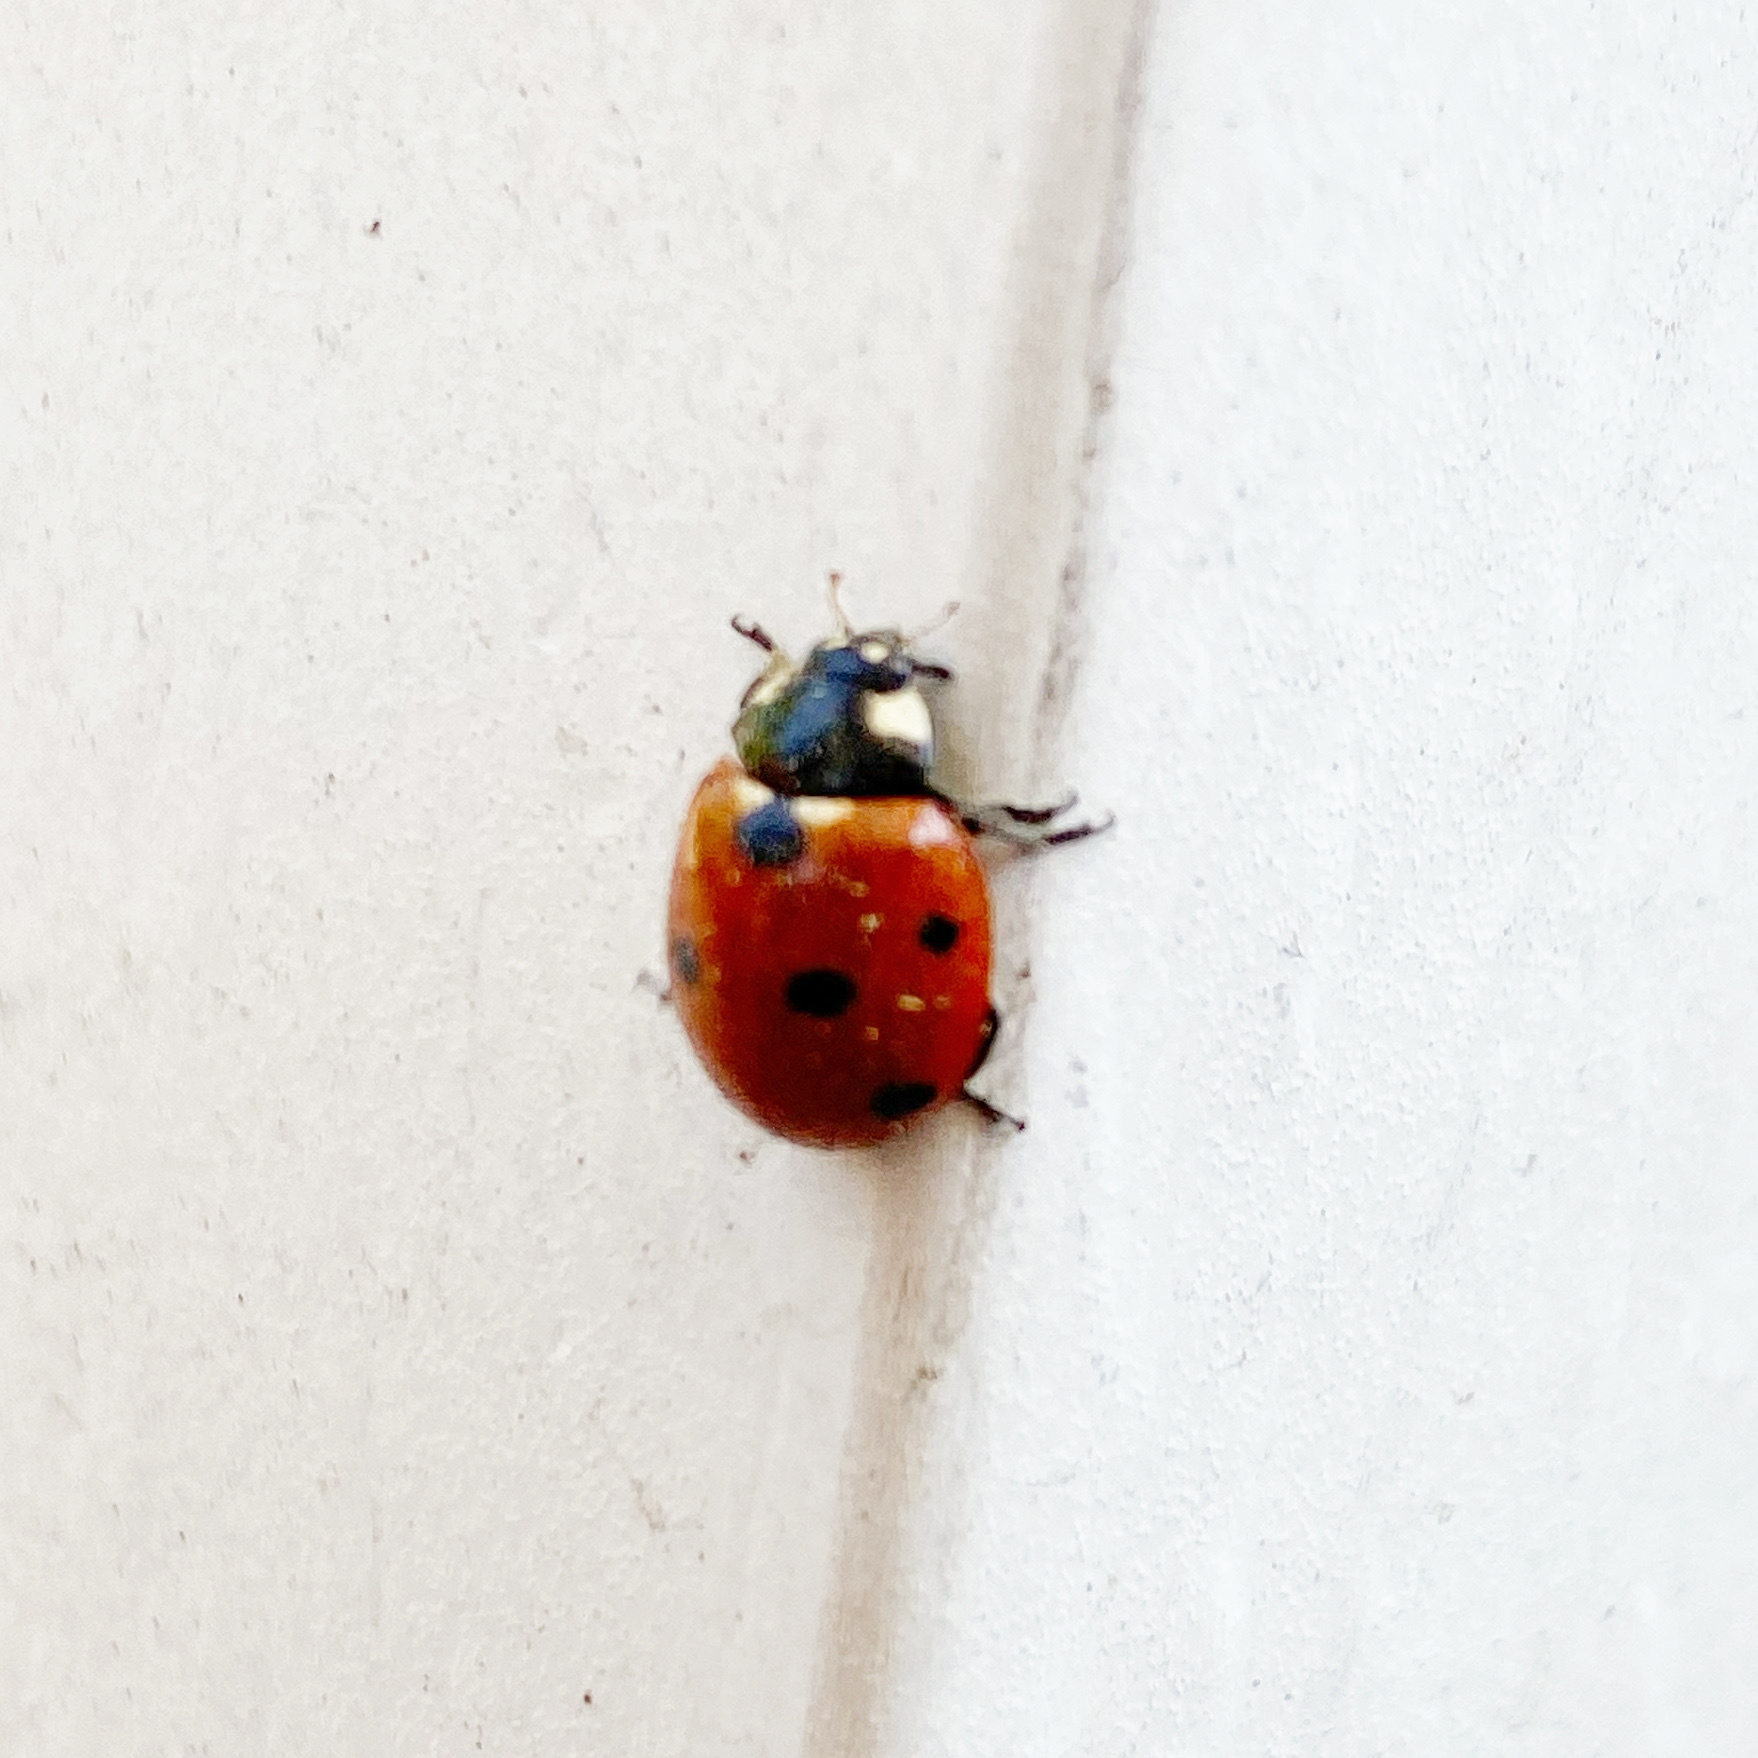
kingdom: Animalia
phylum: Arthropoda
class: Insecta
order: Coleoptera
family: Coccinellidae
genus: Coccinella
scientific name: Coccinella septempunctata
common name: Sevenspotted lady beetle
